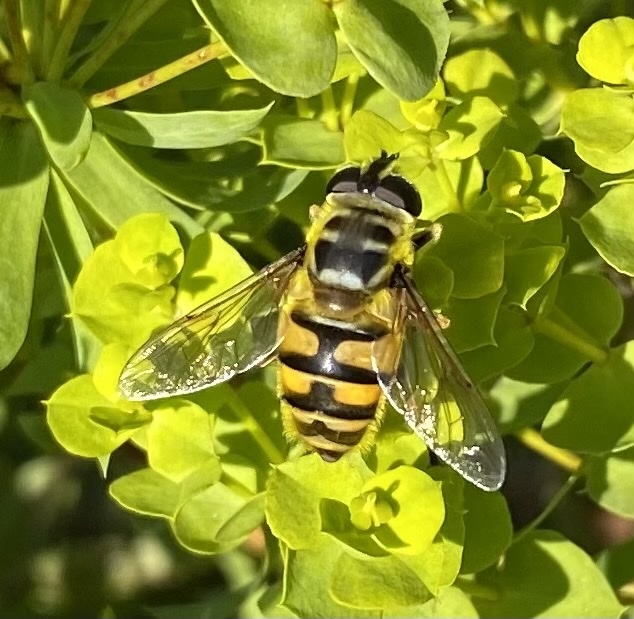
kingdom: Animalia
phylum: Arthropoda
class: Insecta
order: Diptera
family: Syrphidae
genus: Myathropa
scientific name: Myathropa florea
